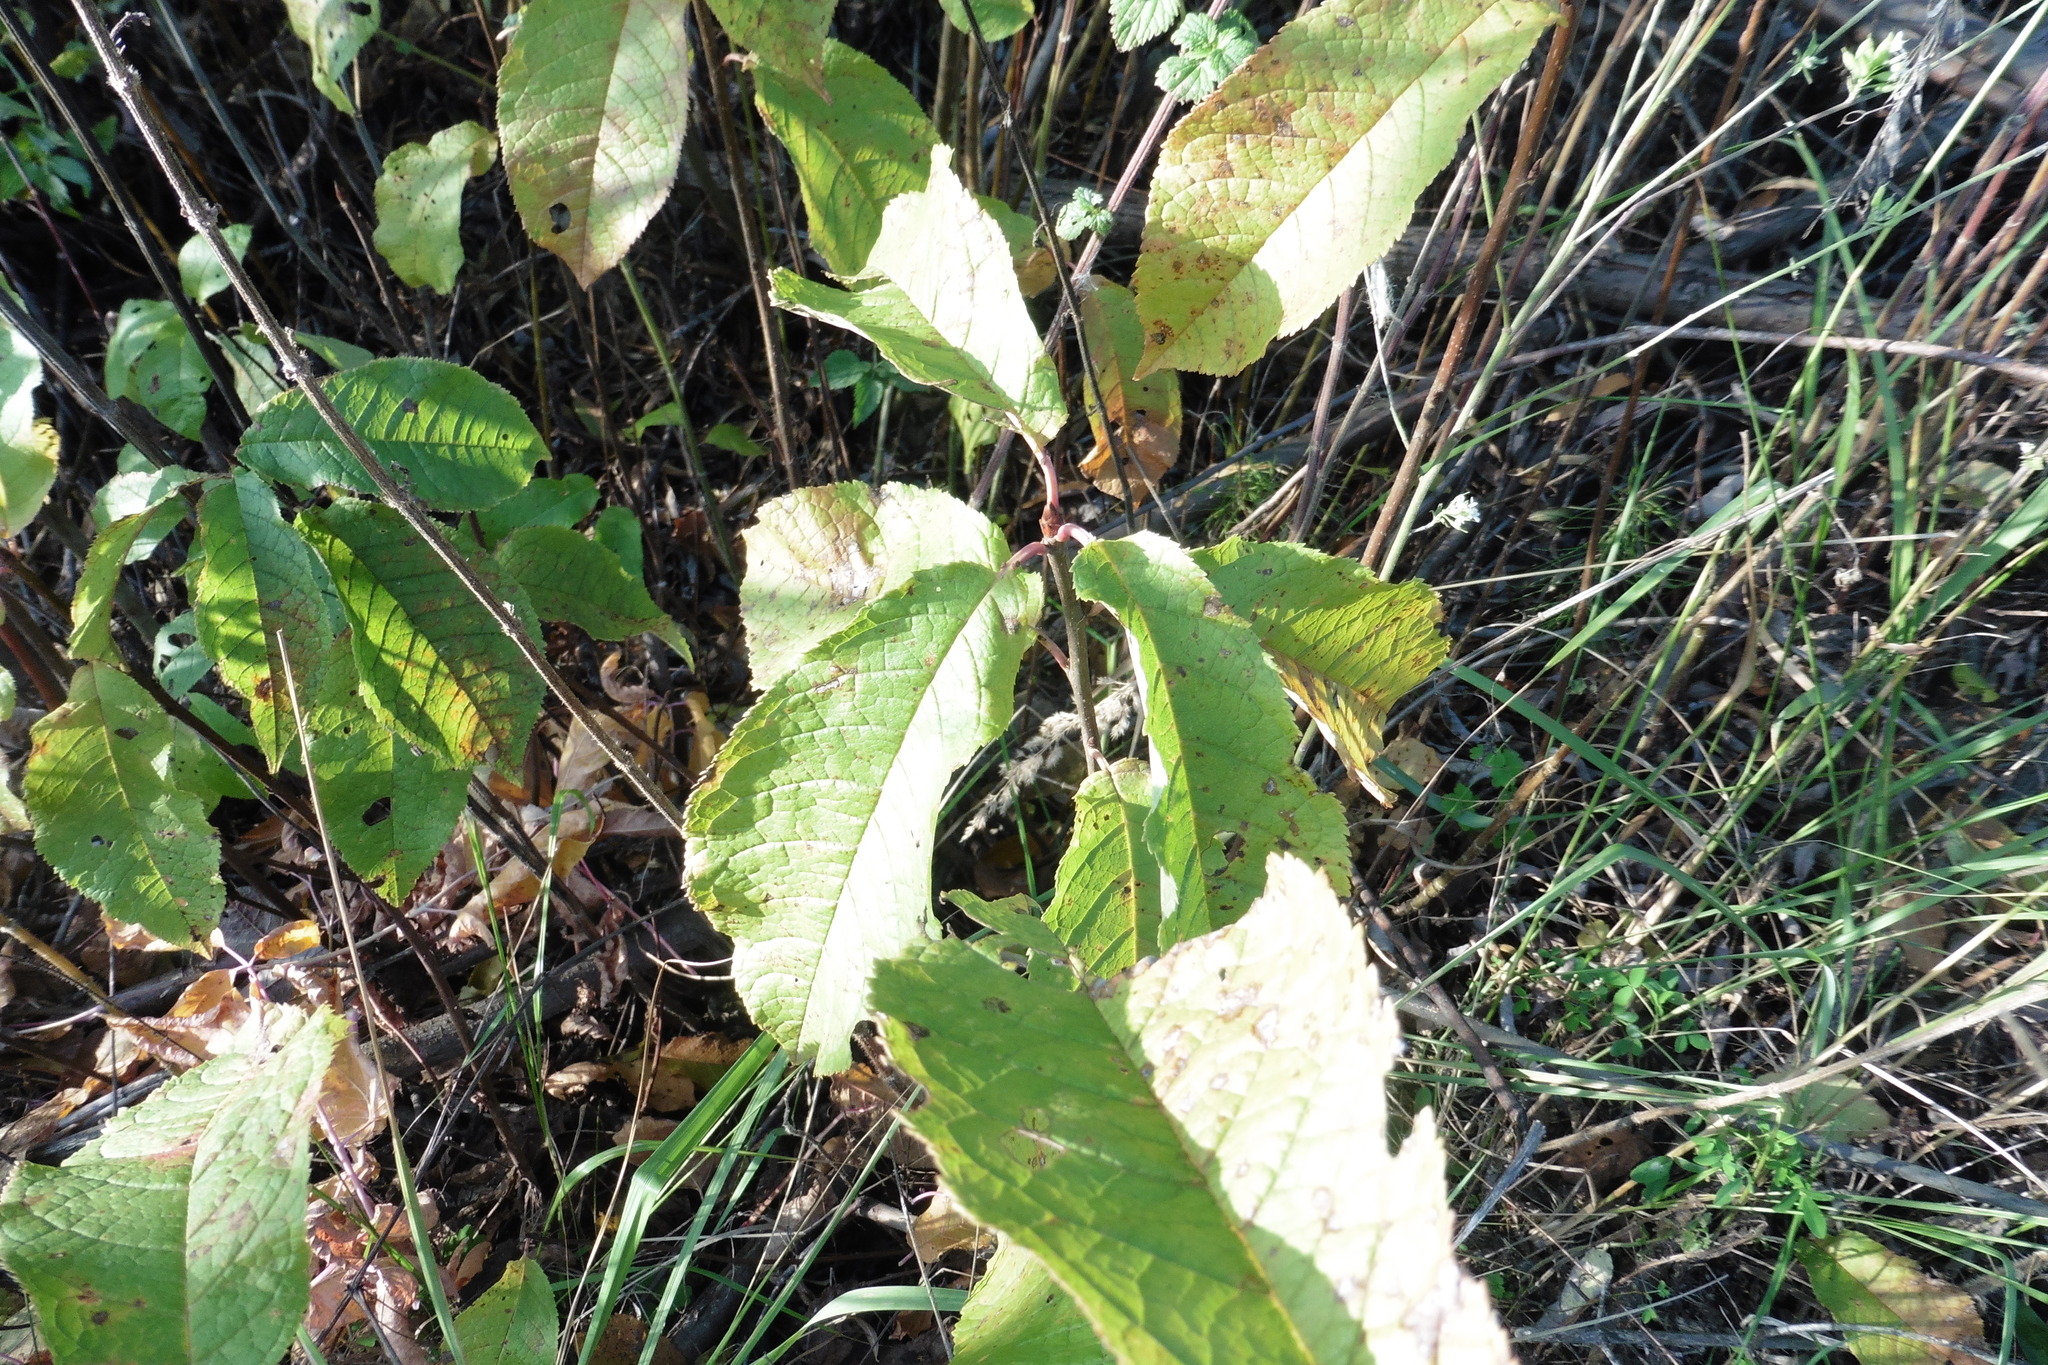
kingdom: Plantae
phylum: Tracheophyta
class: Magnoliopsida
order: Rosales
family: Rosaceae
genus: Prunus
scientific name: Prunus padus
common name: Bird cherry
